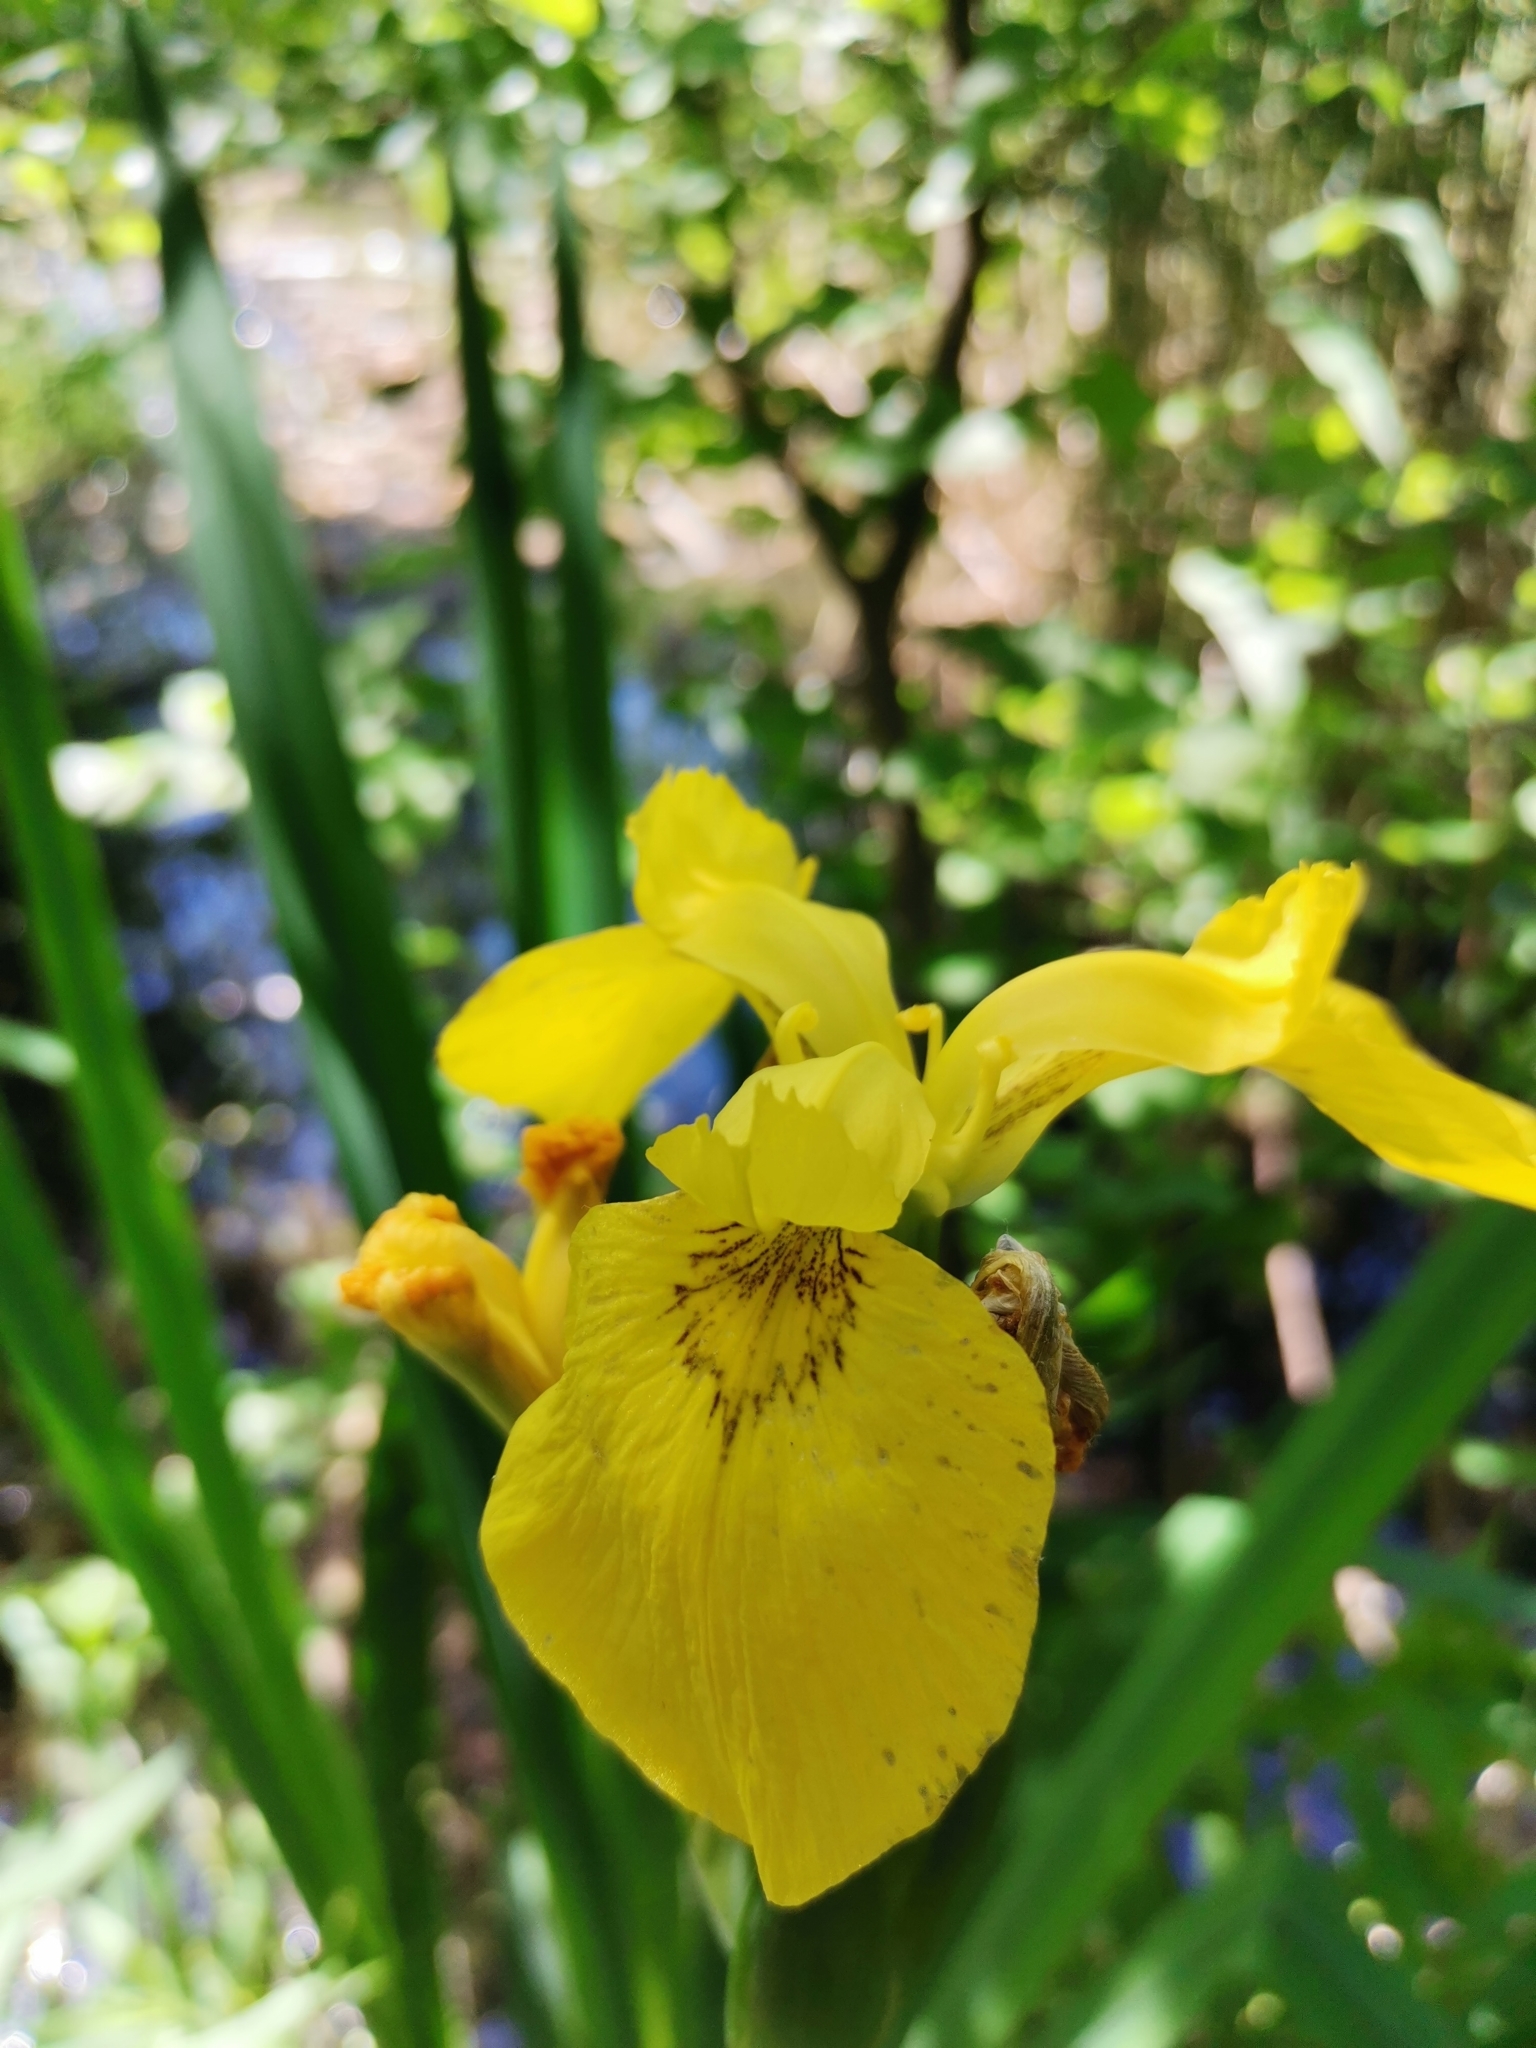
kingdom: Plantae
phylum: Tracheophyta
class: Liliopsida
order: Asparagales
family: Iridaceae
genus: Iris
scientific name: Iris pseudacorus
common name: Yellow flag
